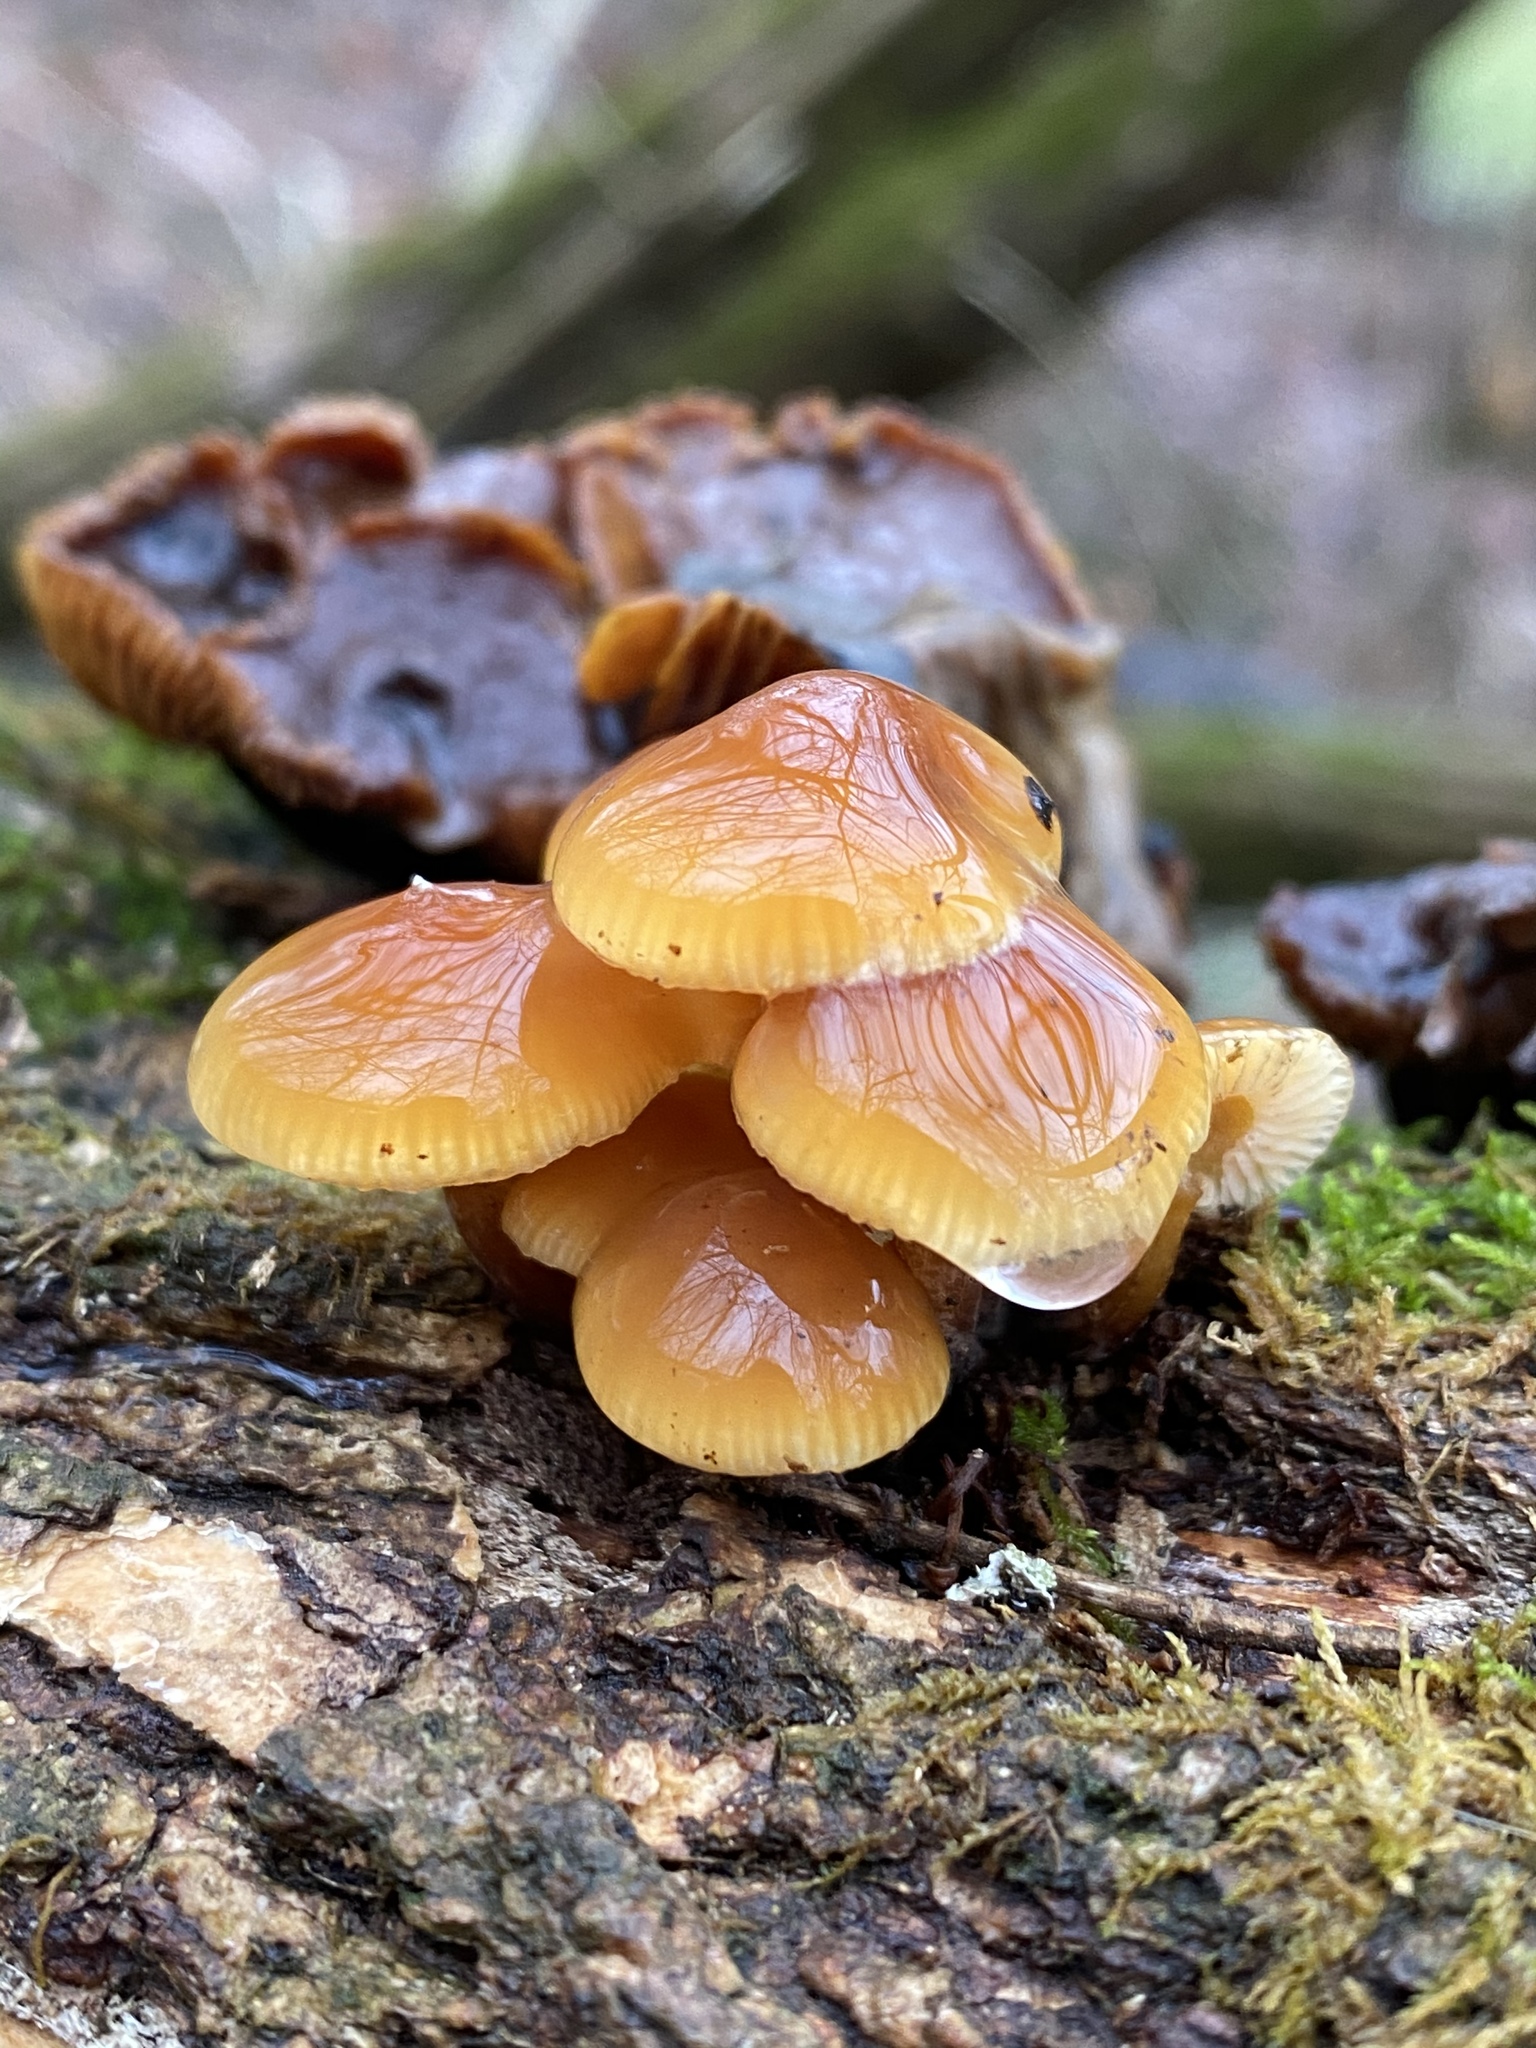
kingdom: Fungi
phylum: Basidiomycota
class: Agaricomycetes
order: Agaricales
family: Physalacriaceae
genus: Flammulina
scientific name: Flammulina velutipes
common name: Velvet shank
